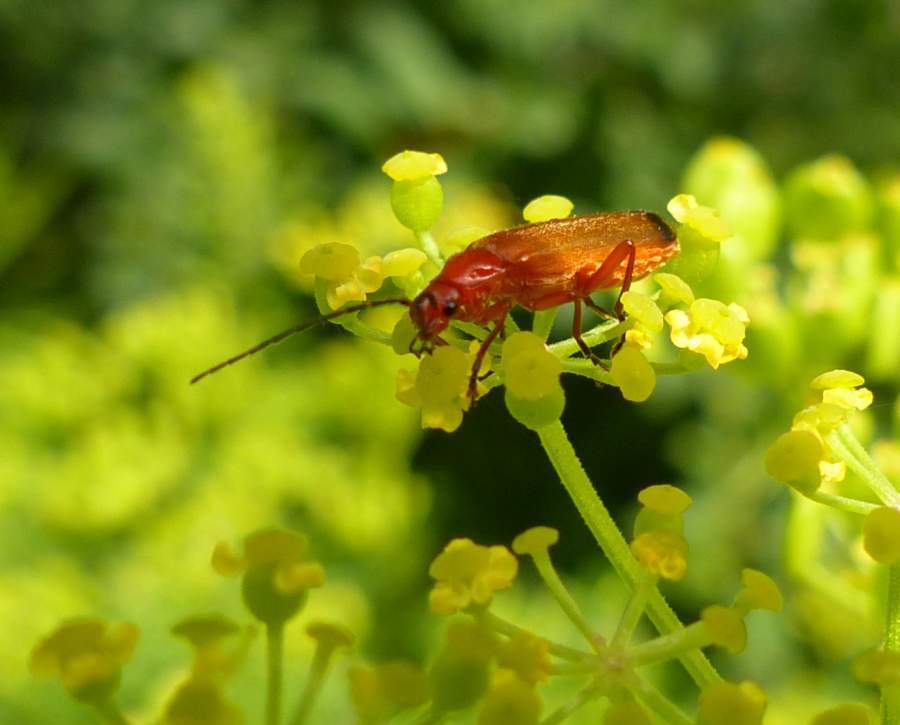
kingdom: Animalia
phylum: Arthropoda
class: Insecta
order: Coleoptera
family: Cantharidae
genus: Rhagonycha
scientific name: Rhagonycha fulva
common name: Common red soldier beetle
